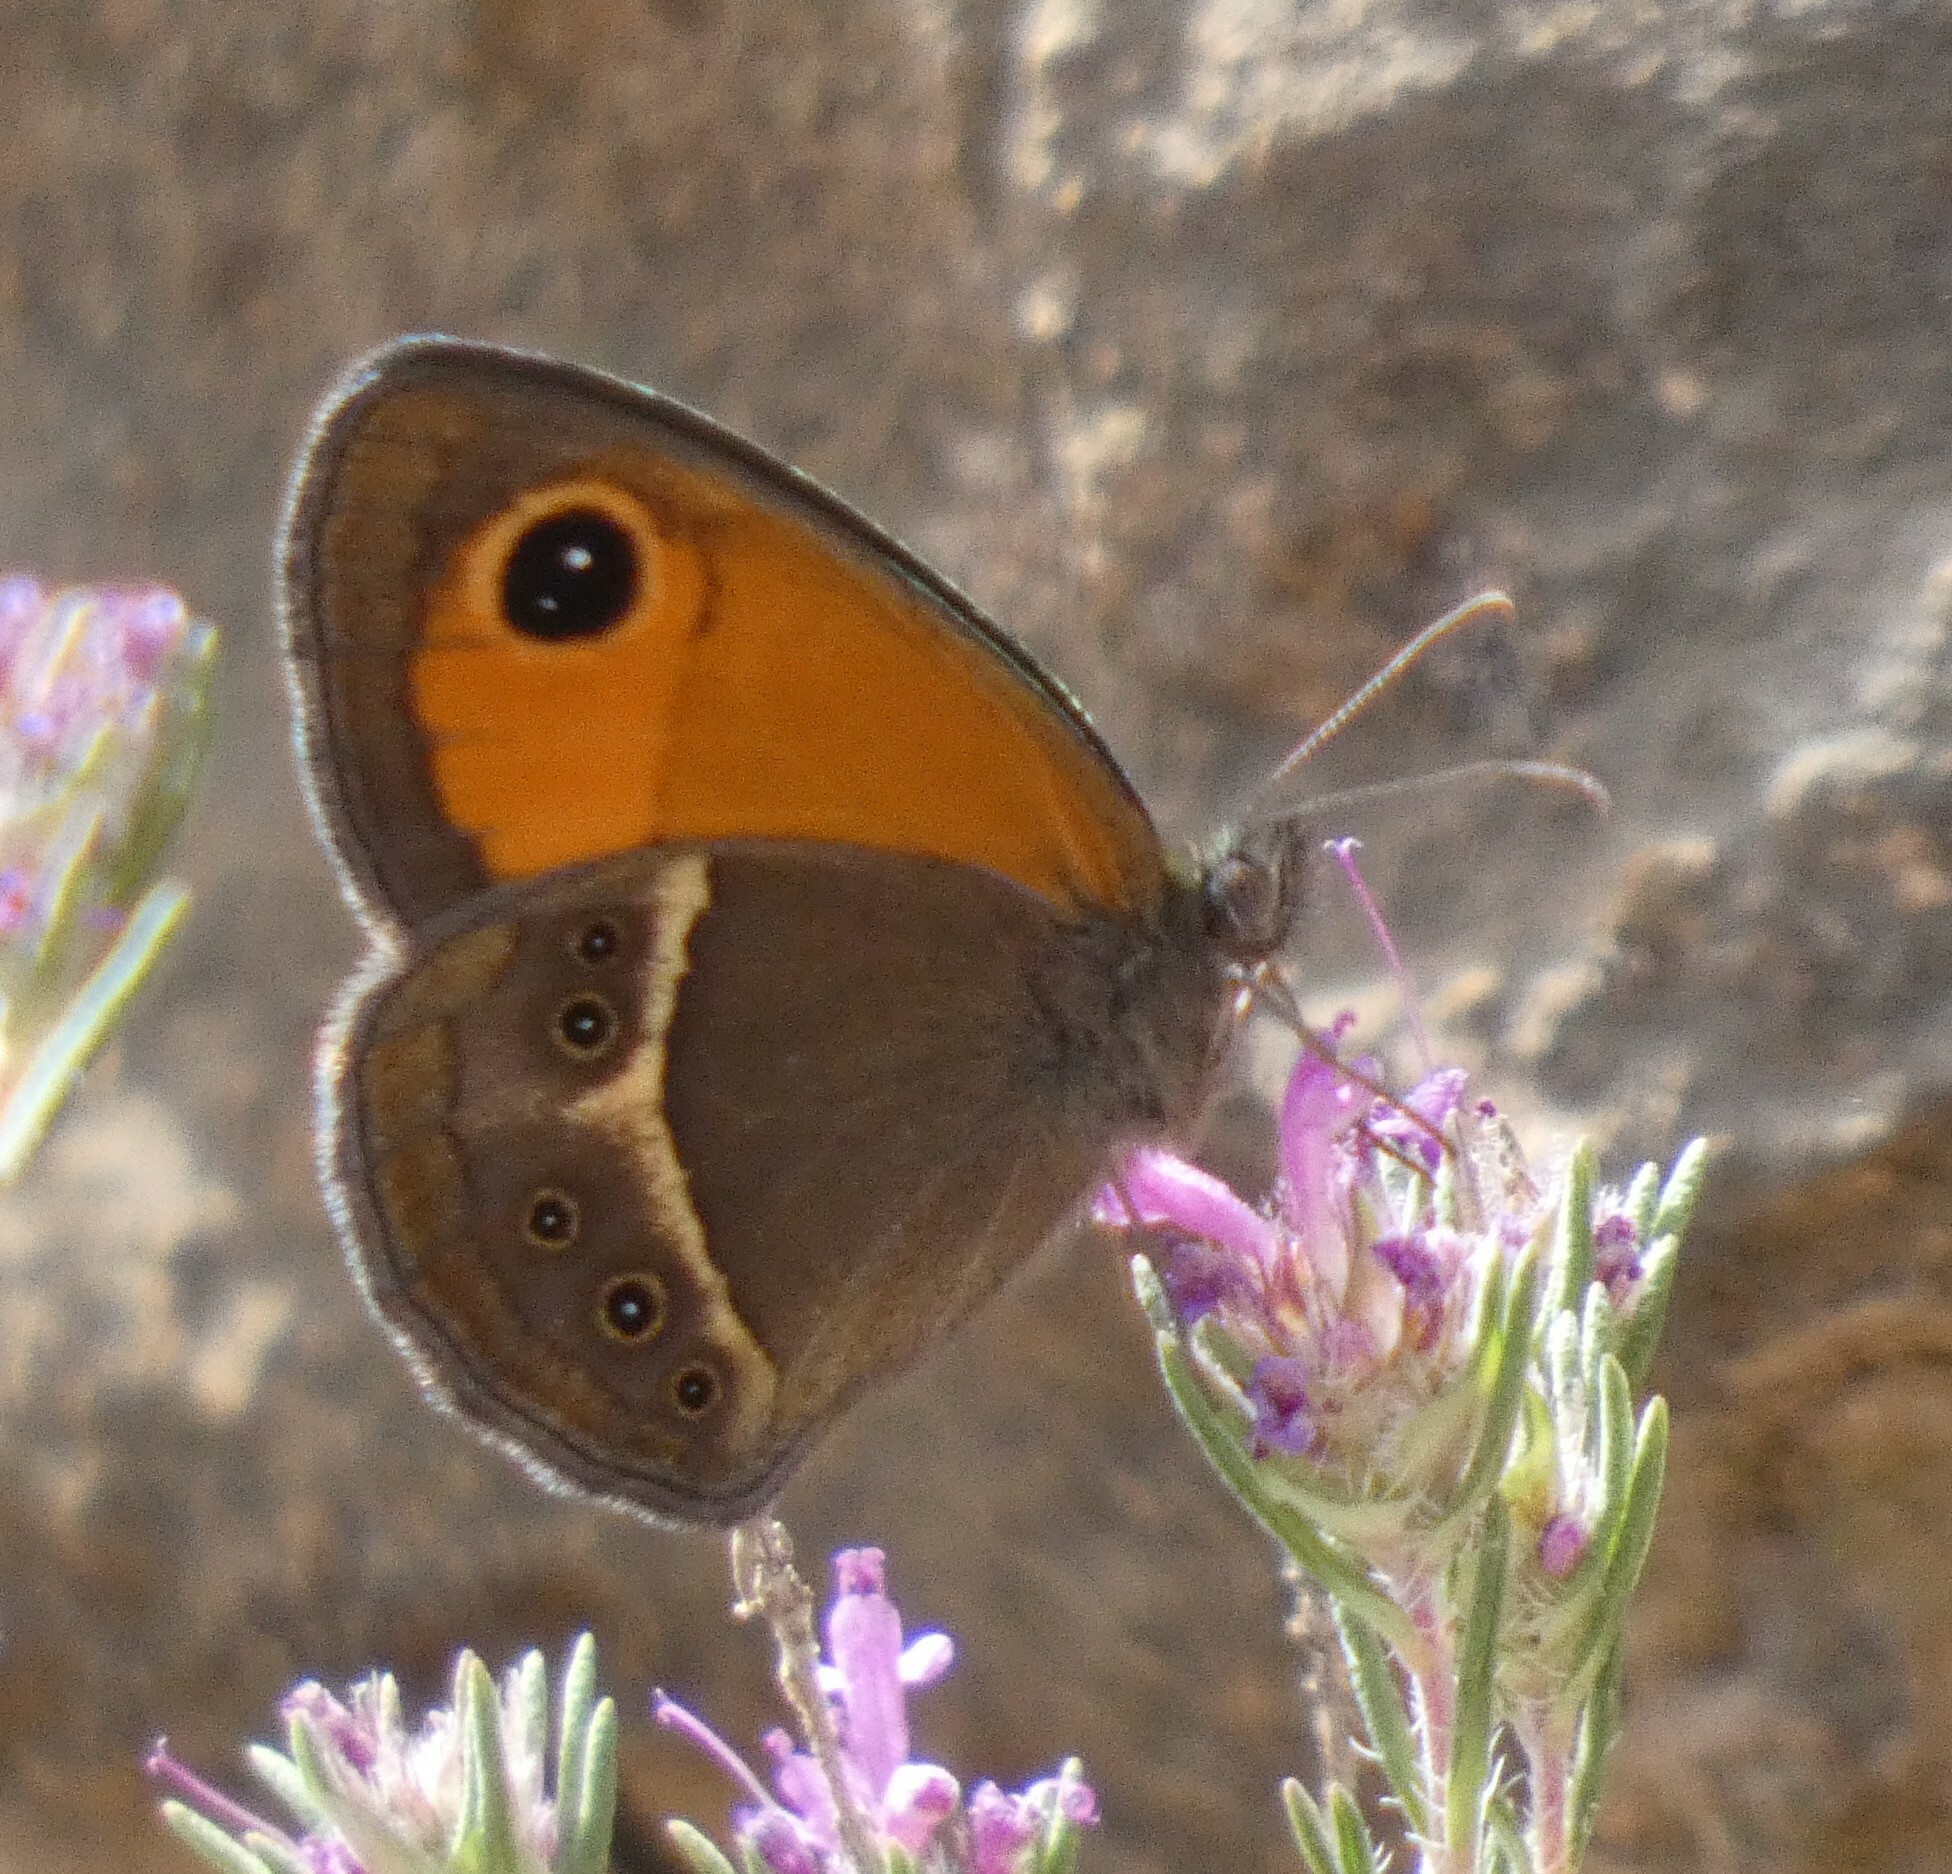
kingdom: Animalia
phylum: Arthropoda
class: Insecta
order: Lepidoptera
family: Nymphalidae
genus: Pyronia
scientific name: Pyronia bathseba
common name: Spanish gatekeeper
